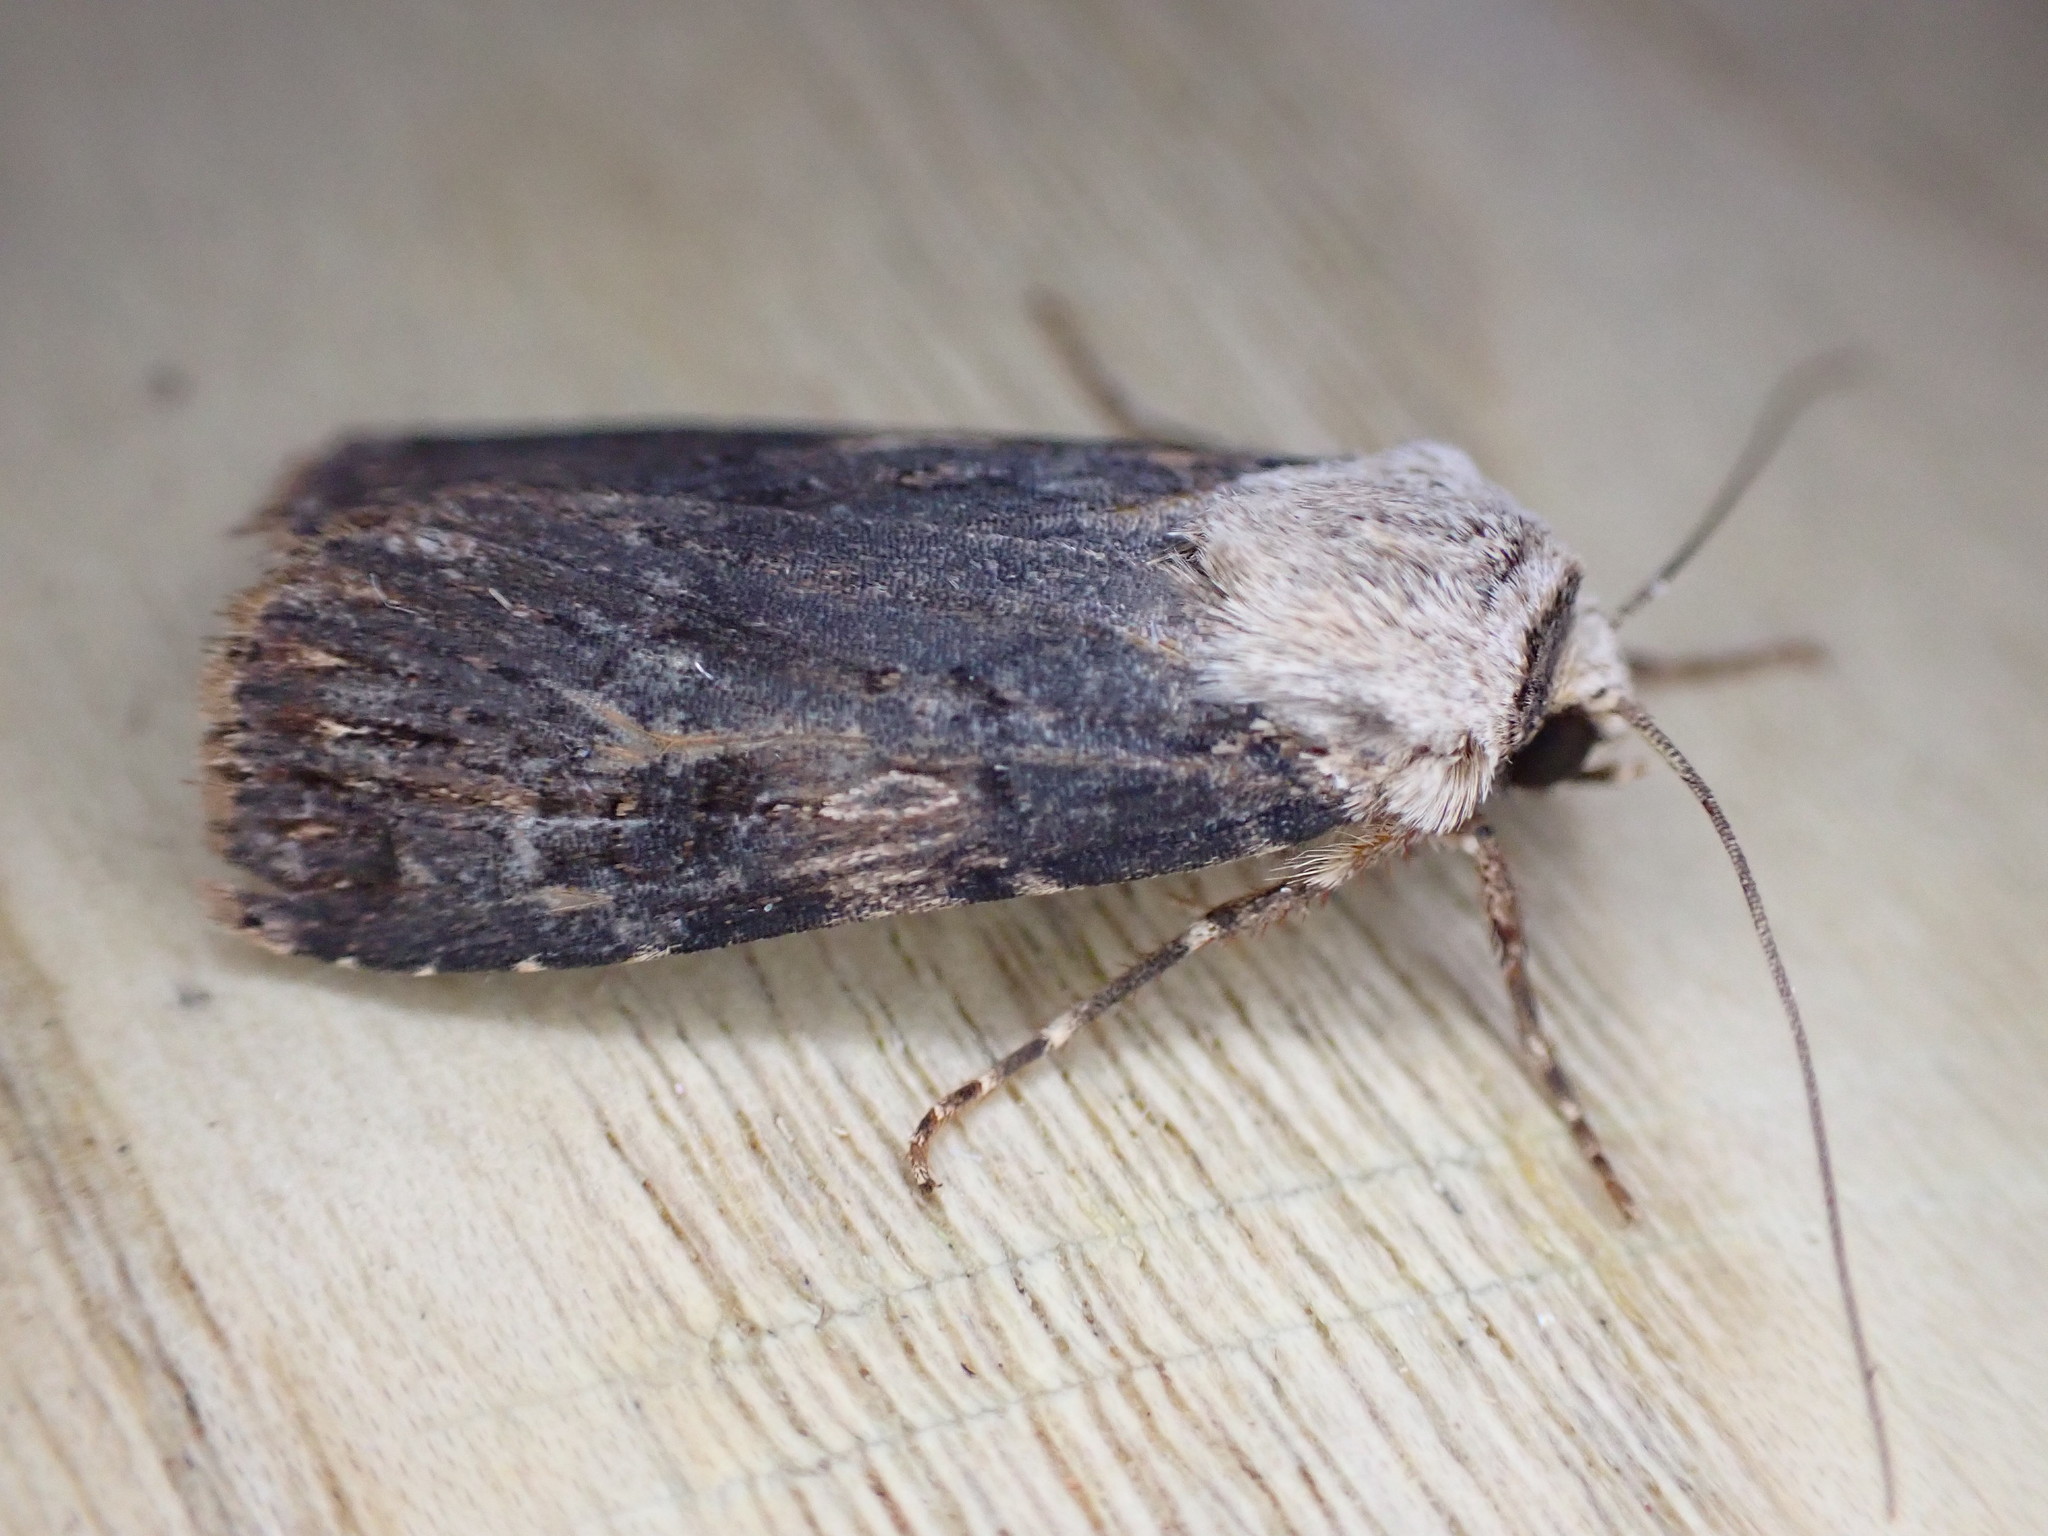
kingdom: Animalia
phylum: Arthropoda
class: Insecta
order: Lepidoptera
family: Noctuidae
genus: Agrotis
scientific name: Agrotis puta
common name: Shuttle-shaped dart
